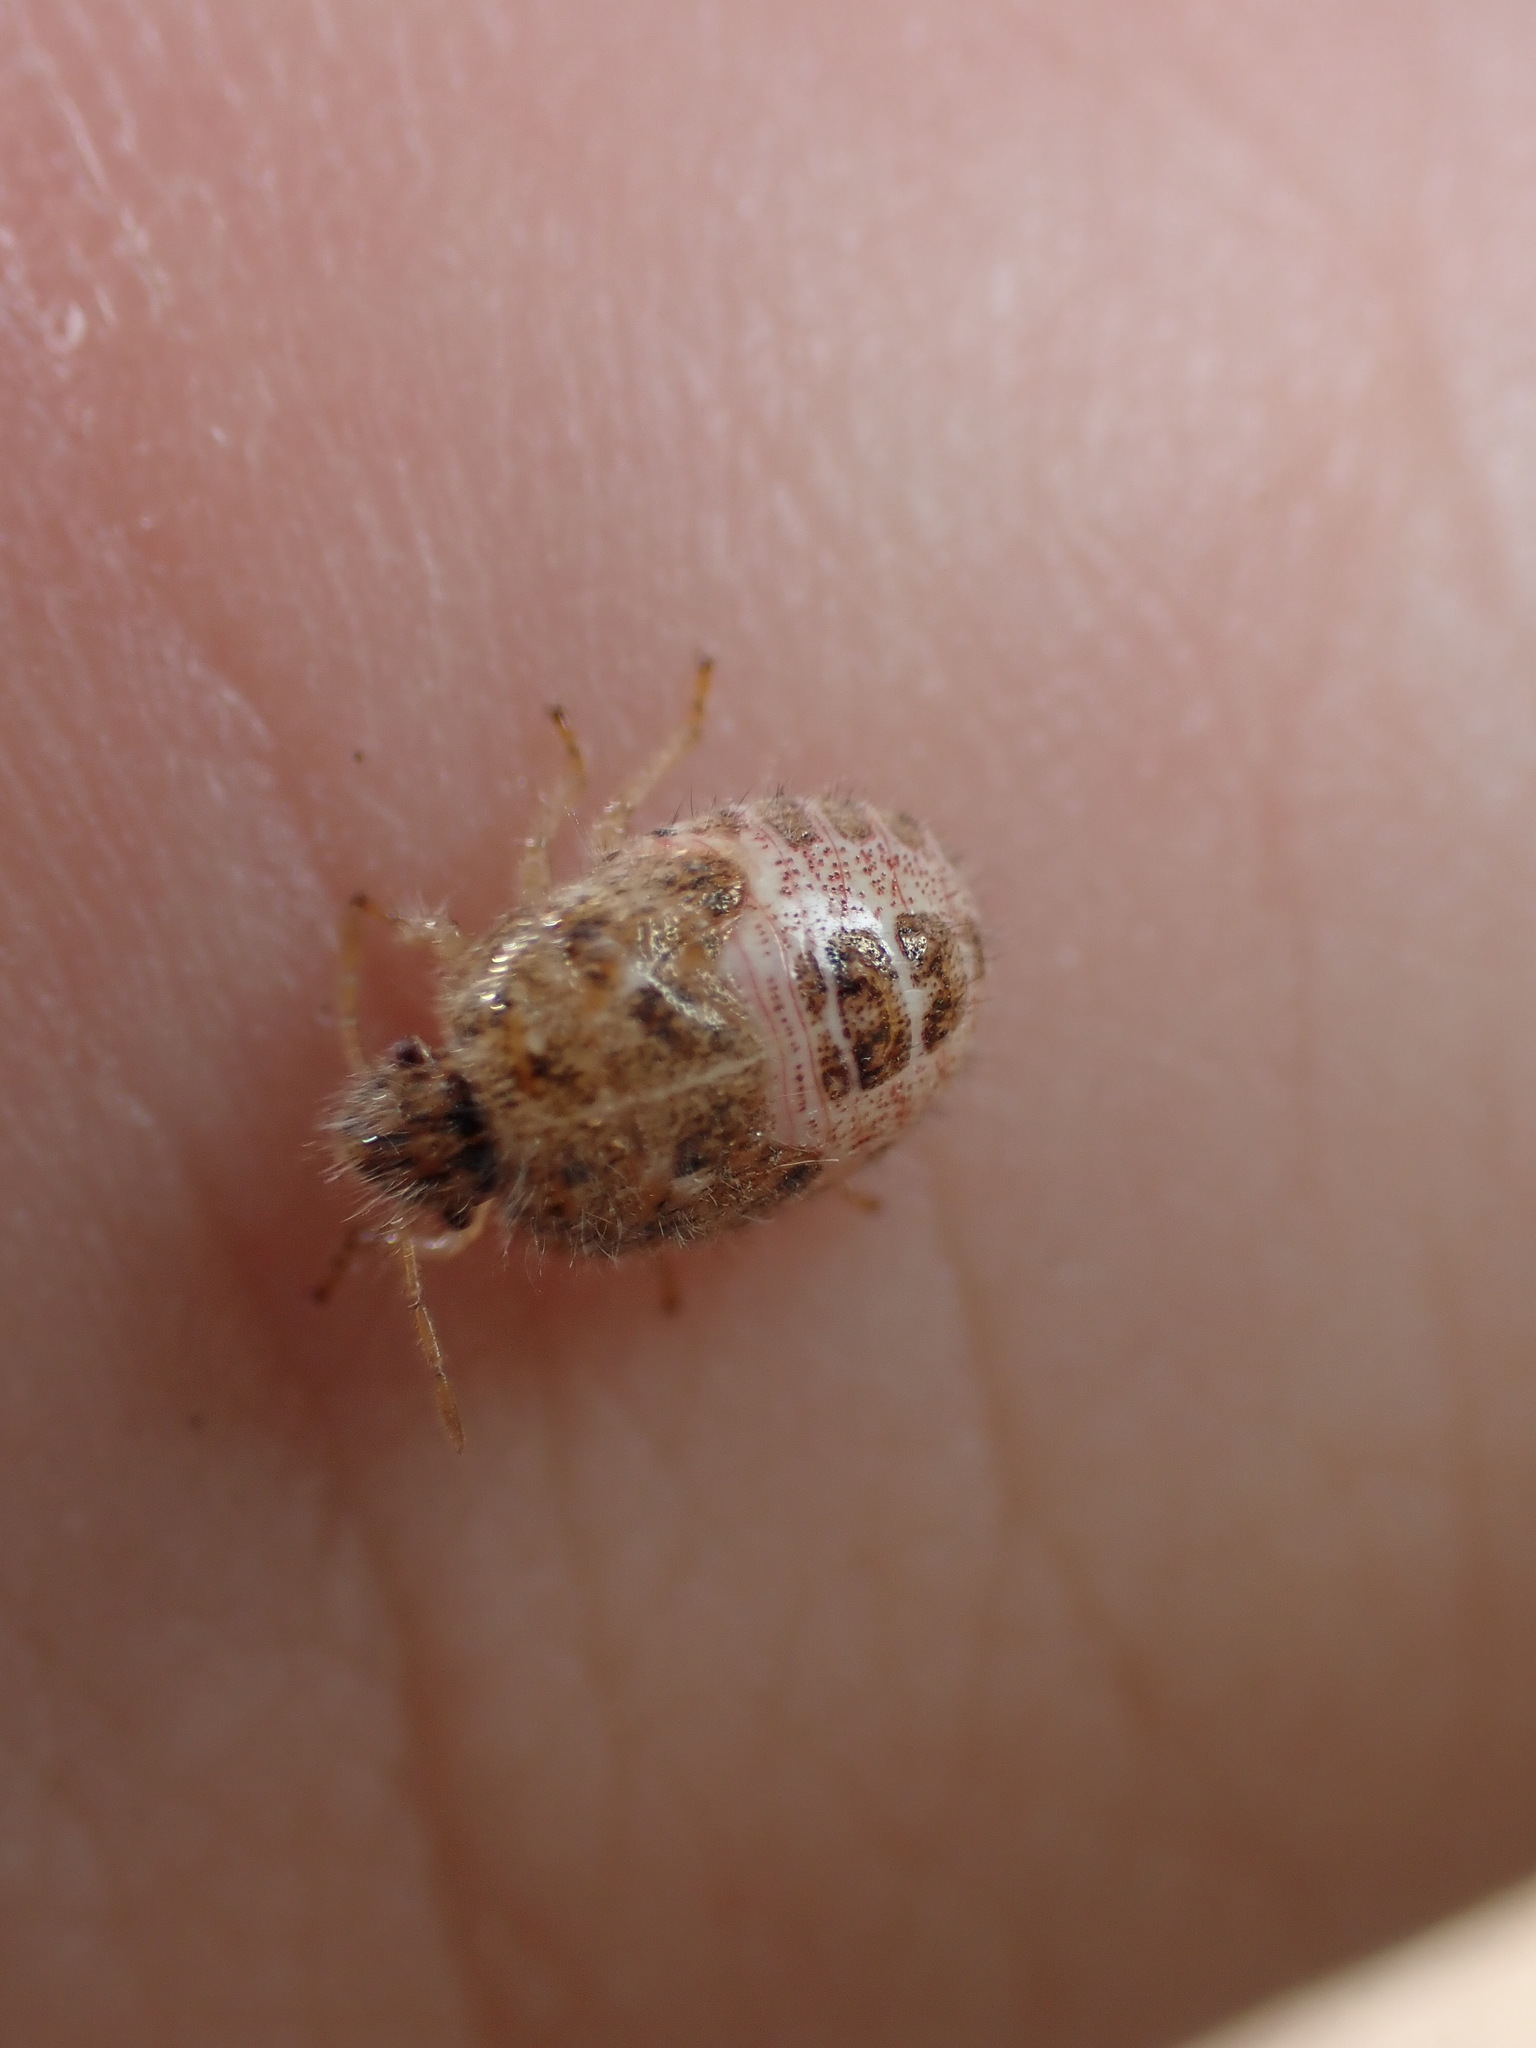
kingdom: Animalia
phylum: Arthropoda
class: Insecta
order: Hemiptera
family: Pentatomidae
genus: Staria
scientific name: Staria lunata
